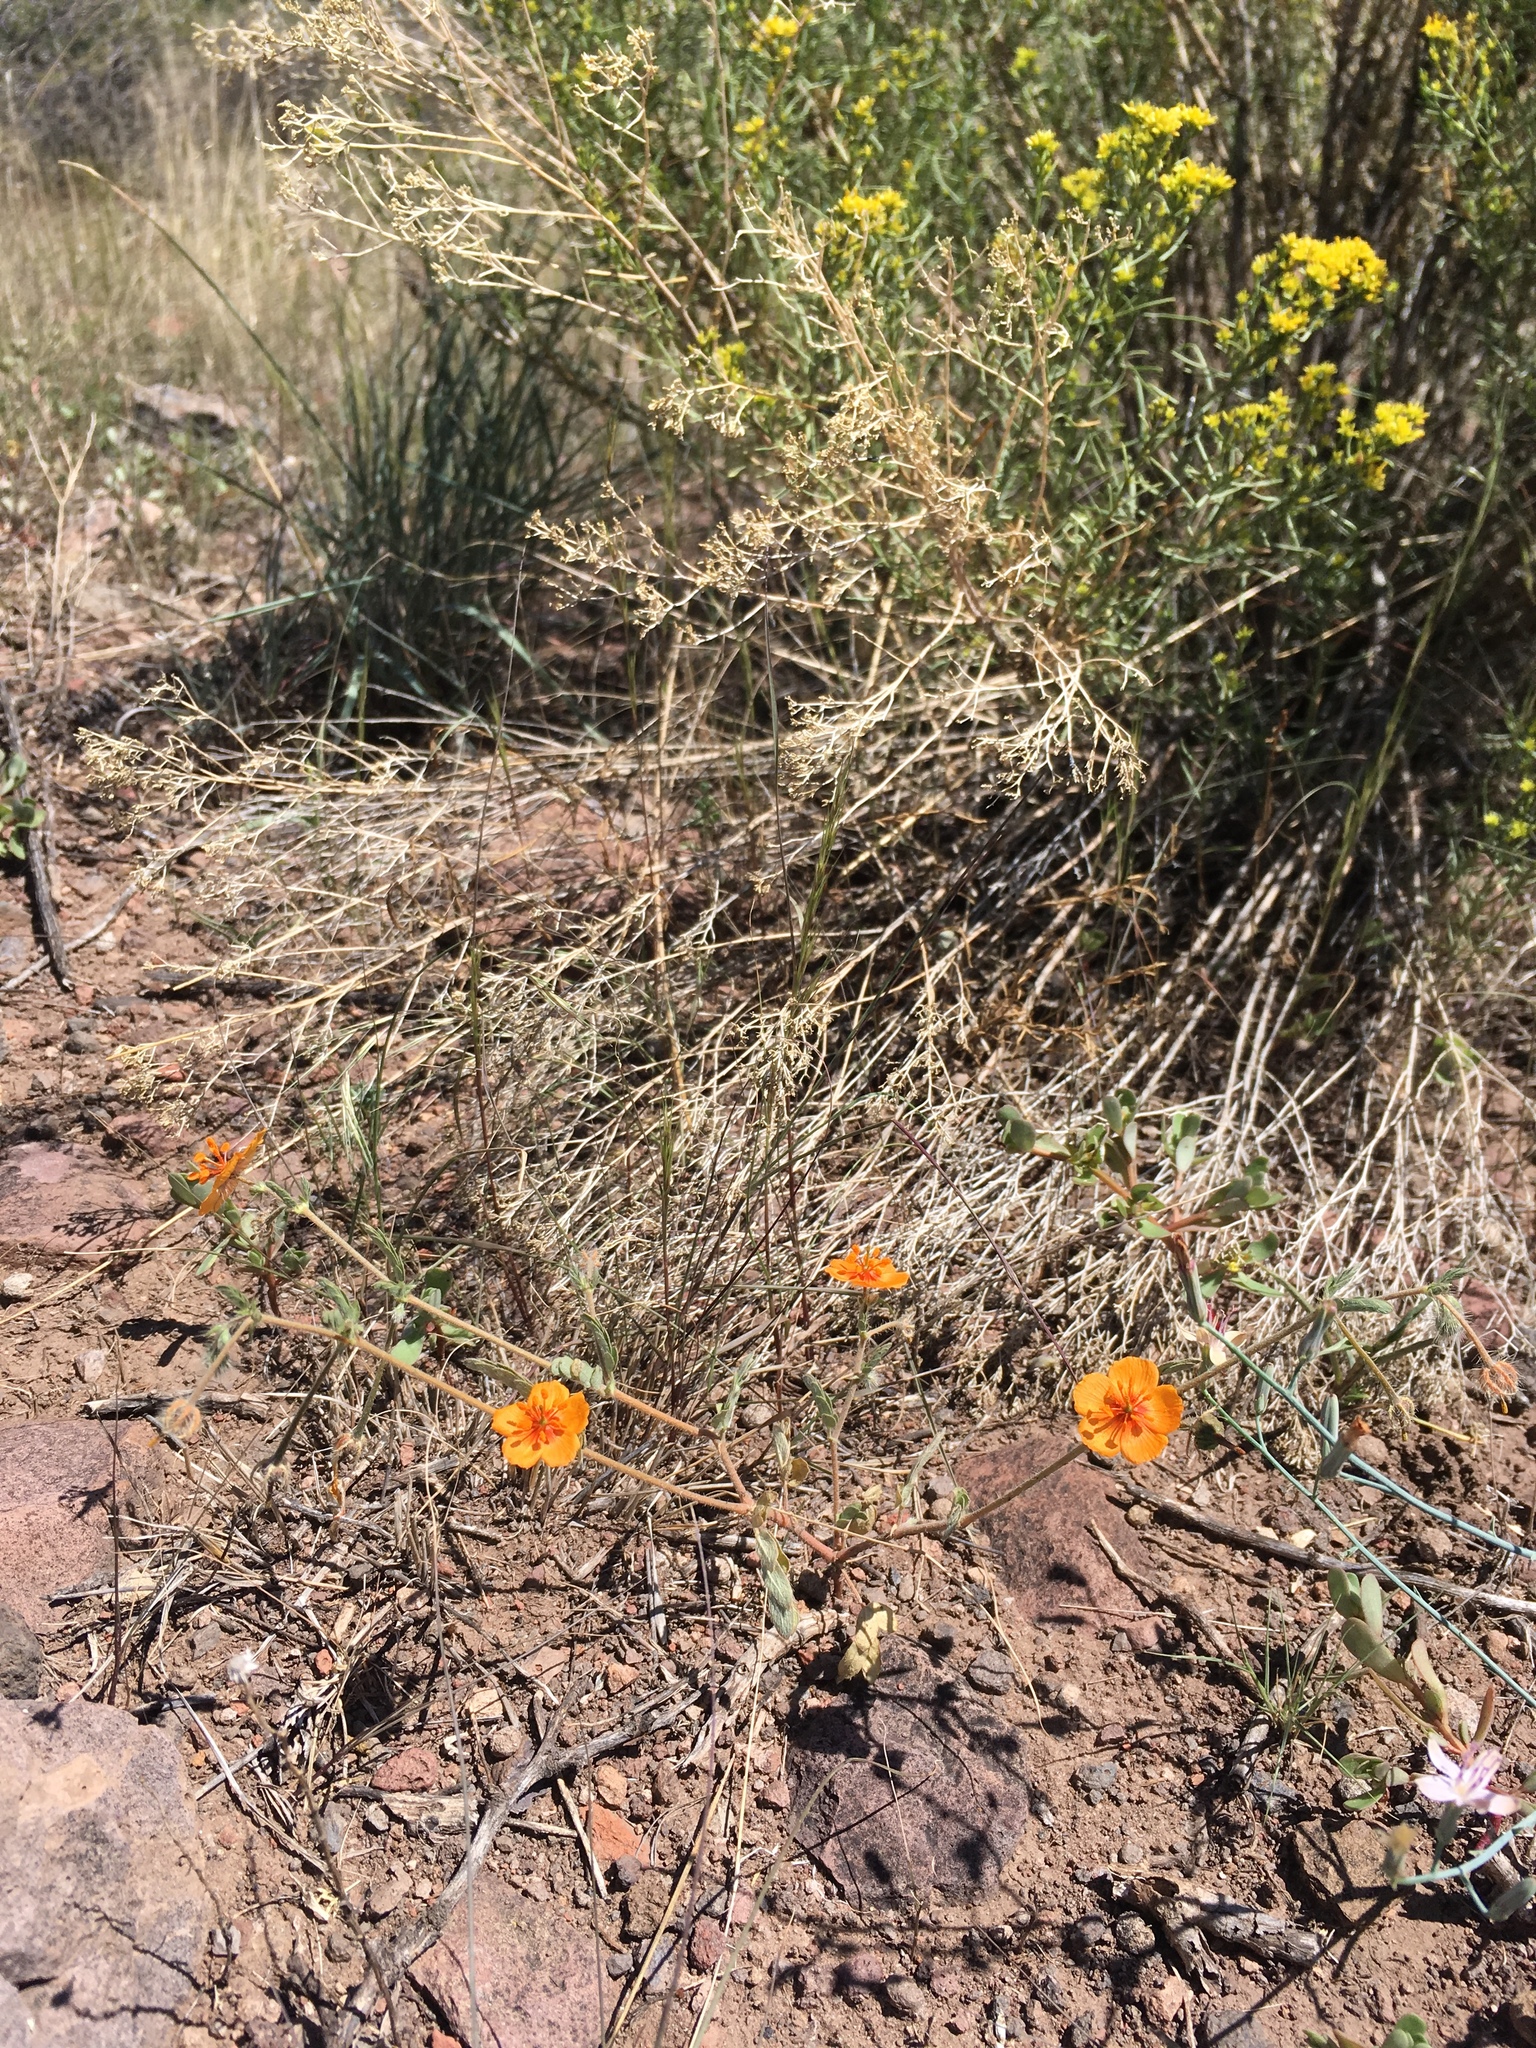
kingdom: Plantae
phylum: Tracheophyta
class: Magnoliopsida
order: Zygophyllales
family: Zygophyllaceae
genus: Kallstroemia
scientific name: Kallstroemia parviflora
